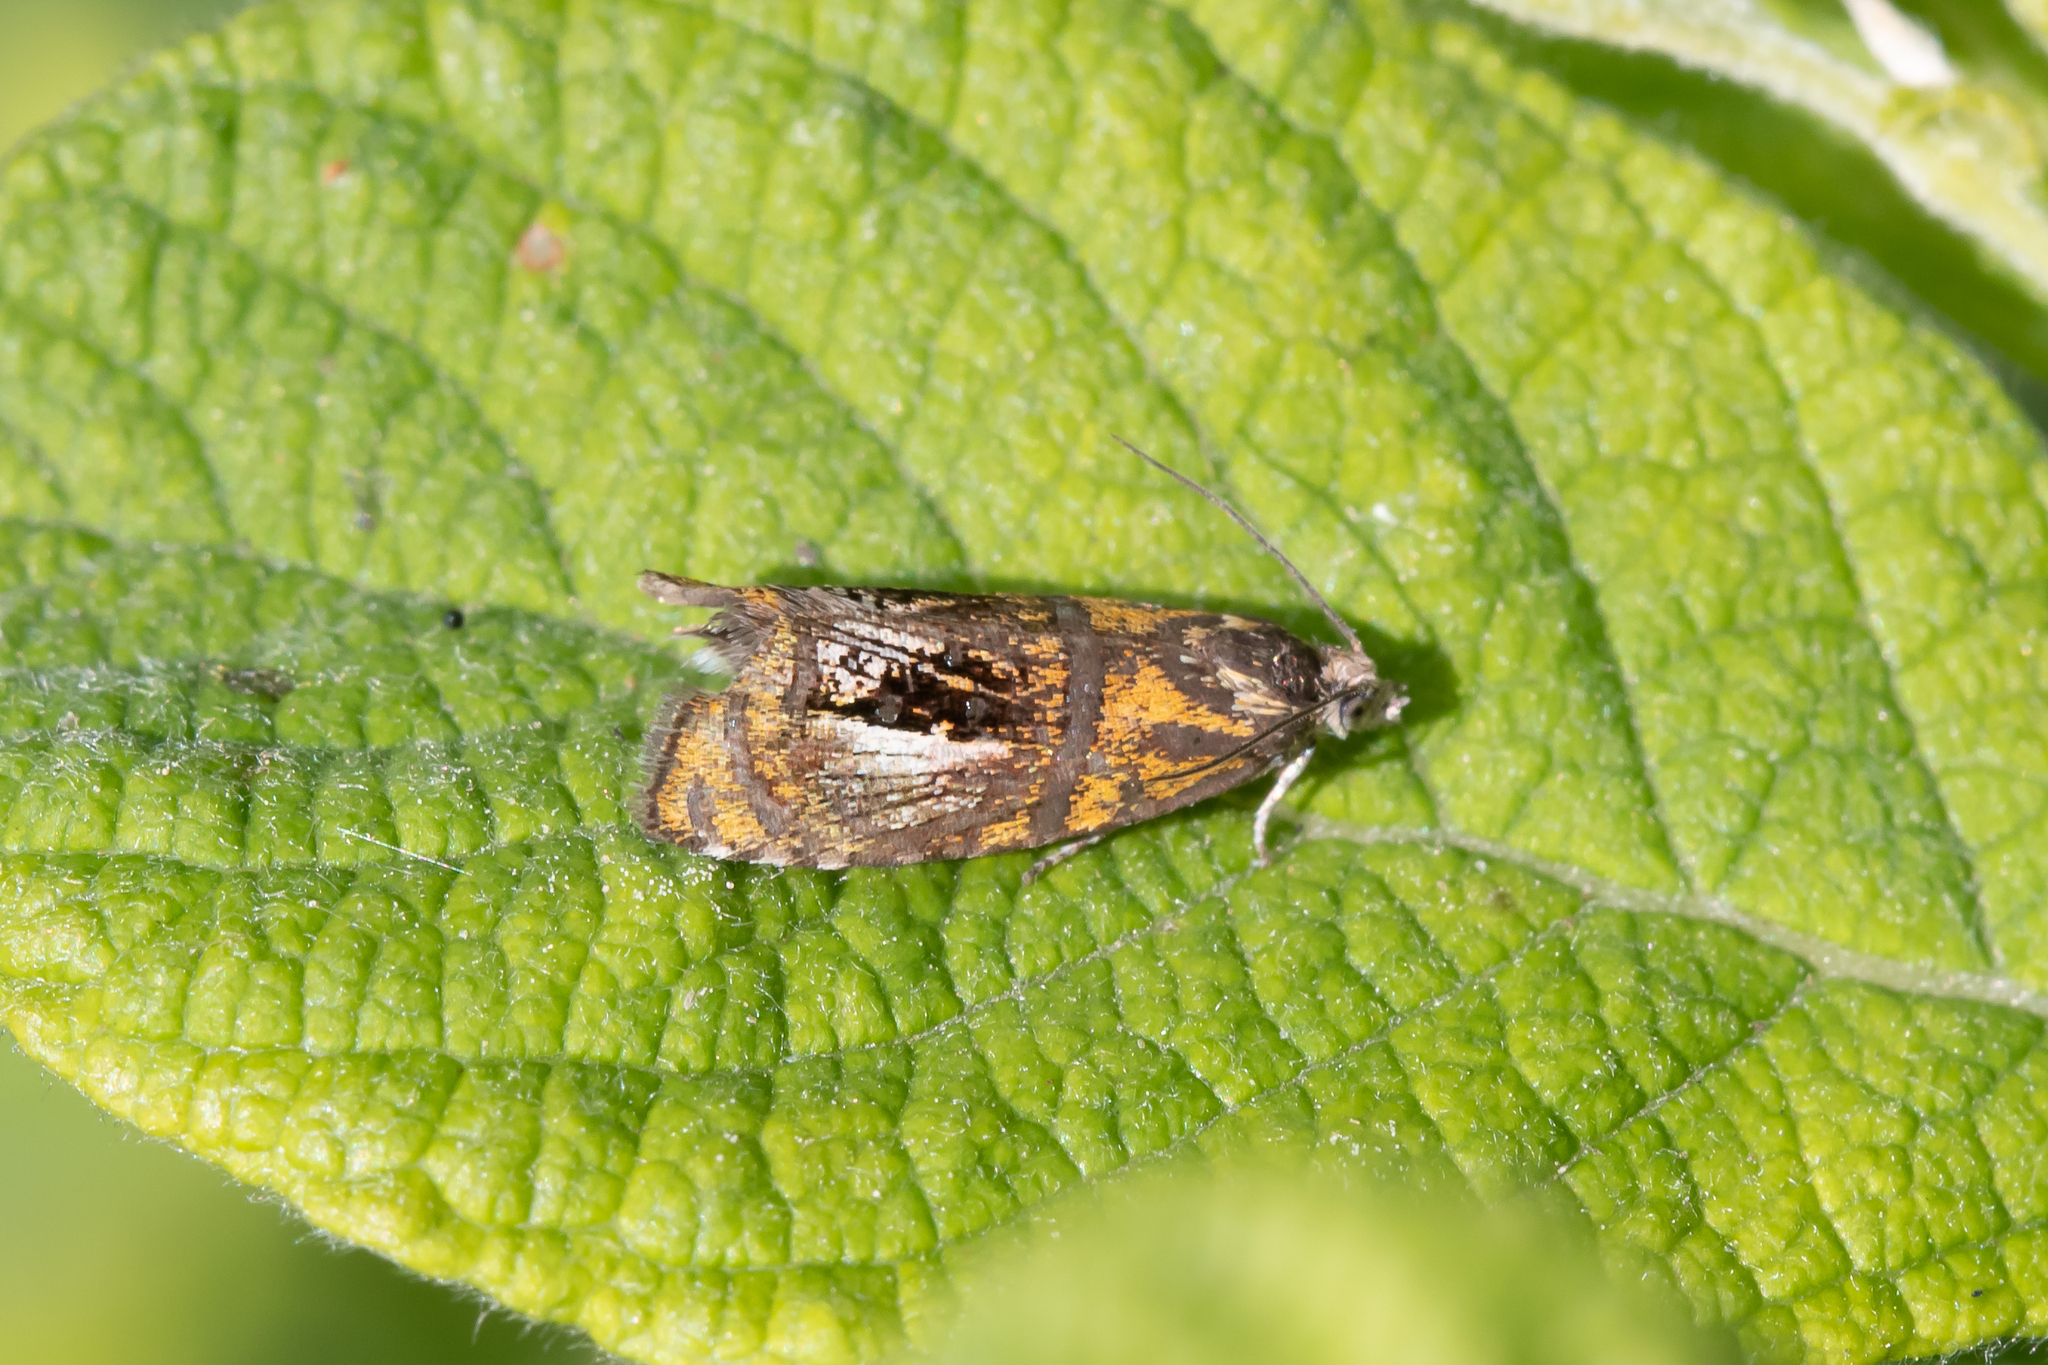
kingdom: Animalia
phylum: Arthropoda
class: Insecta
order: Lepidoptera
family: Tortricidae
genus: Olethreutes
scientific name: Olethreutes arcuella
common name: Arched marble
